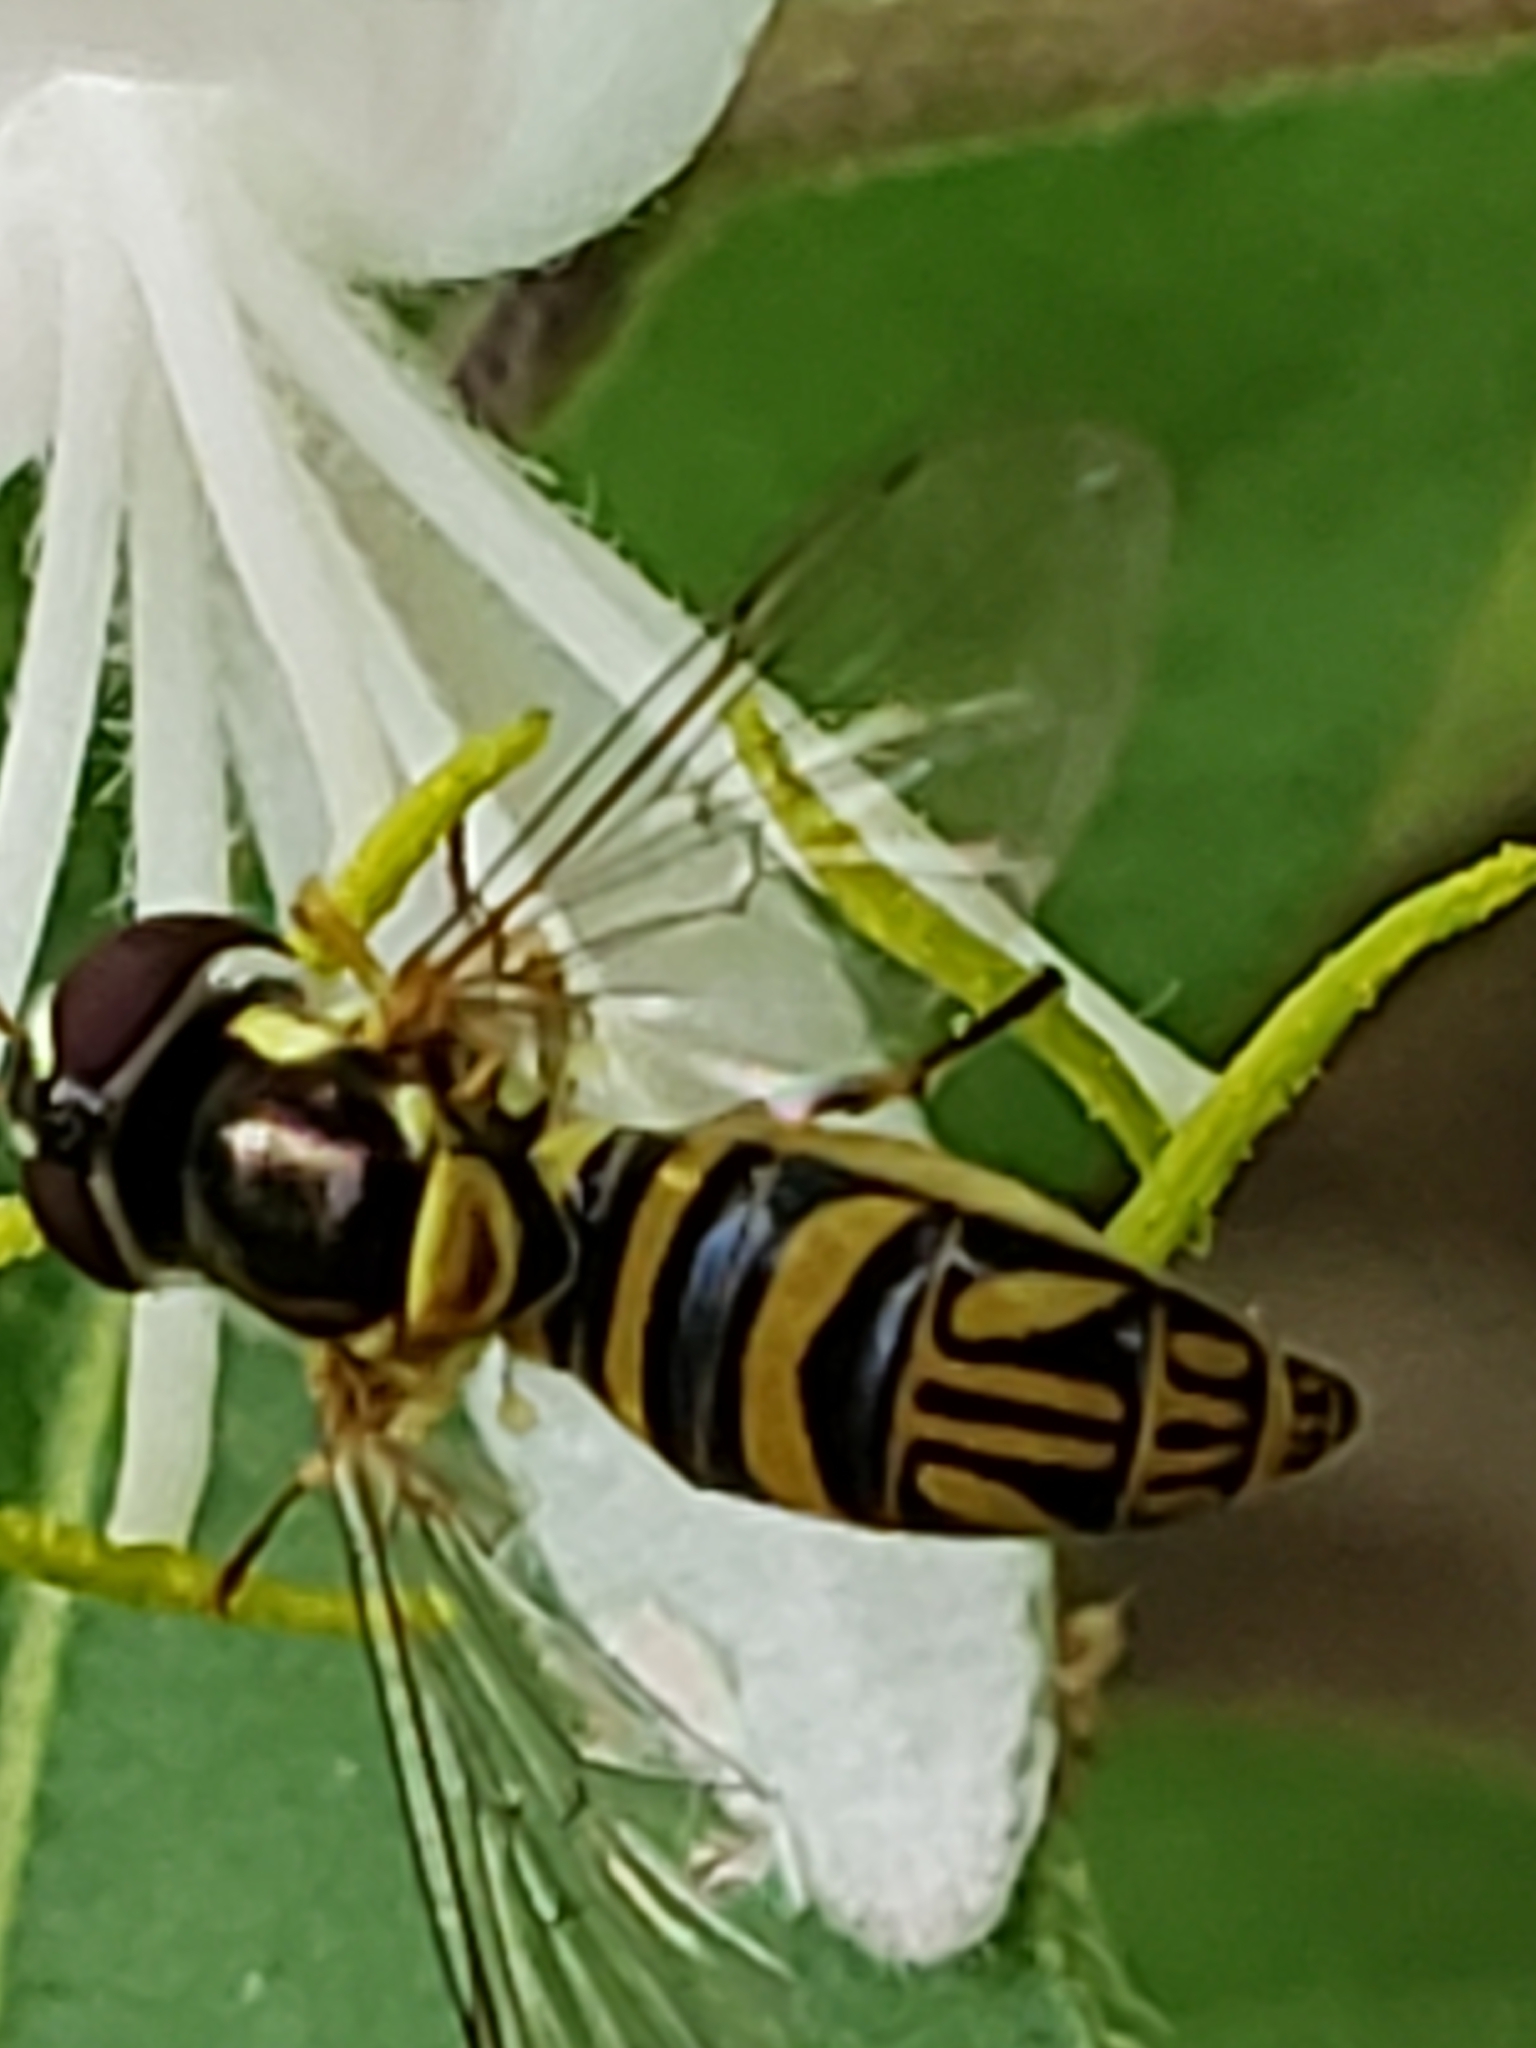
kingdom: Animalia
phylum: Arthropoda
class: Insecta
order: Diptera
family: Syrphidae
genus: Allograpta
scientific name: Allograpta obliqua
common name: Common oblique syrphid
